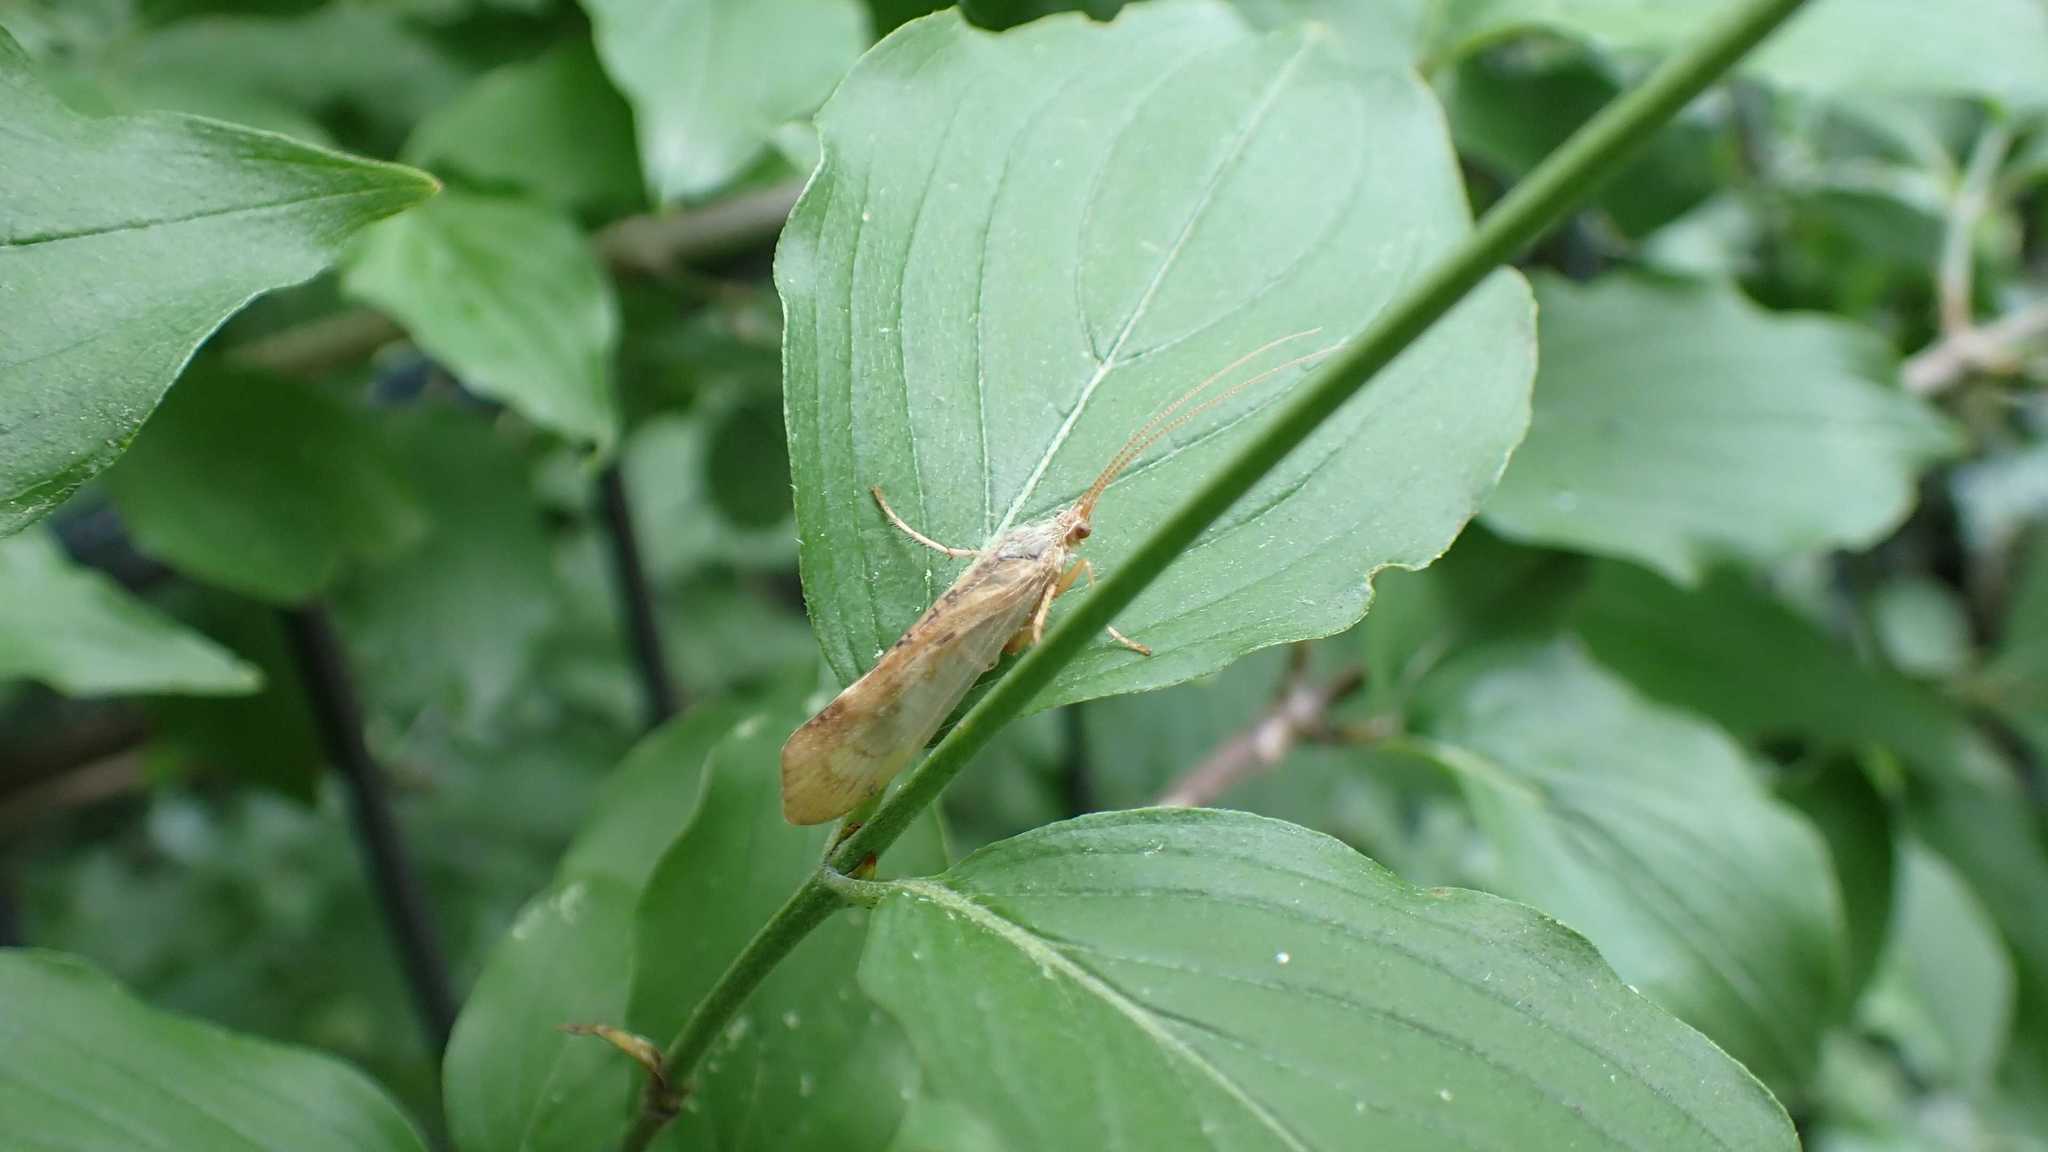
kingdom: Animalia
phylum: Arthropoda
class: Insecta
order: Trichoptera
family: Limnephilidae
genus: Limnephilus
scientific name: Limnephilus flavicornis
